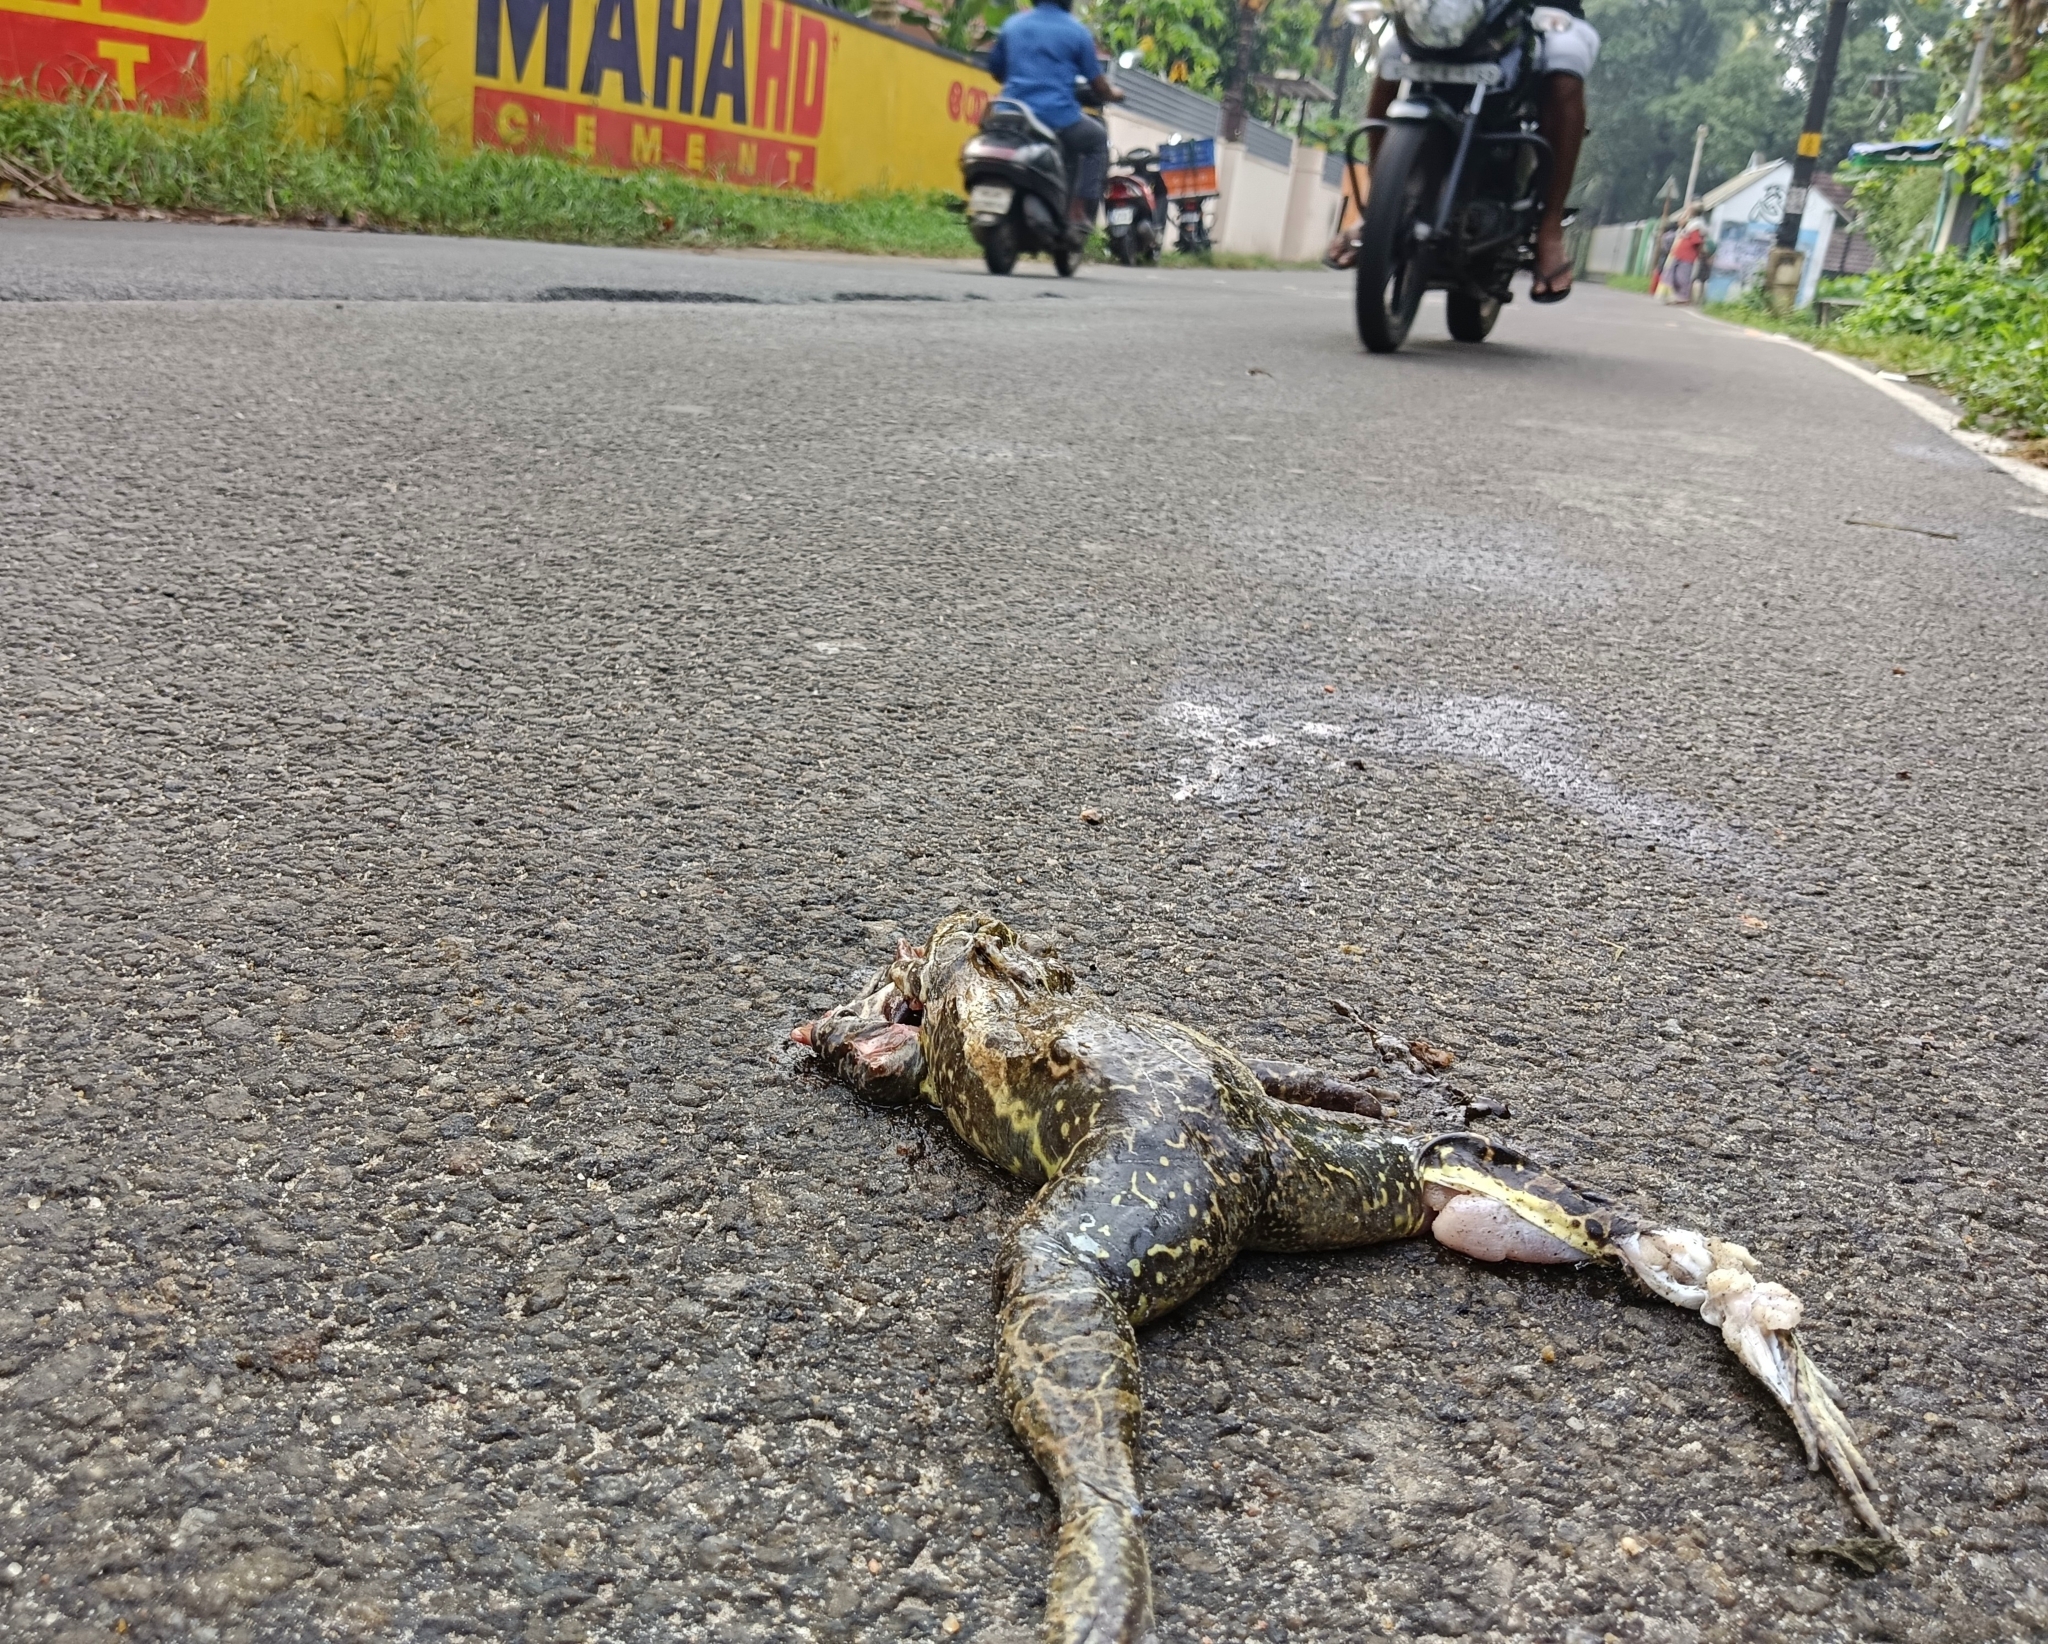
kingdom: Animalia
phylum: Chordata
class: Amphibia
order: Anura
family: Dicroglossidae
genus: Hoplobatrachus
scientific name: Hoplobatrachus tigerinus
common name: Indian bullfrog
